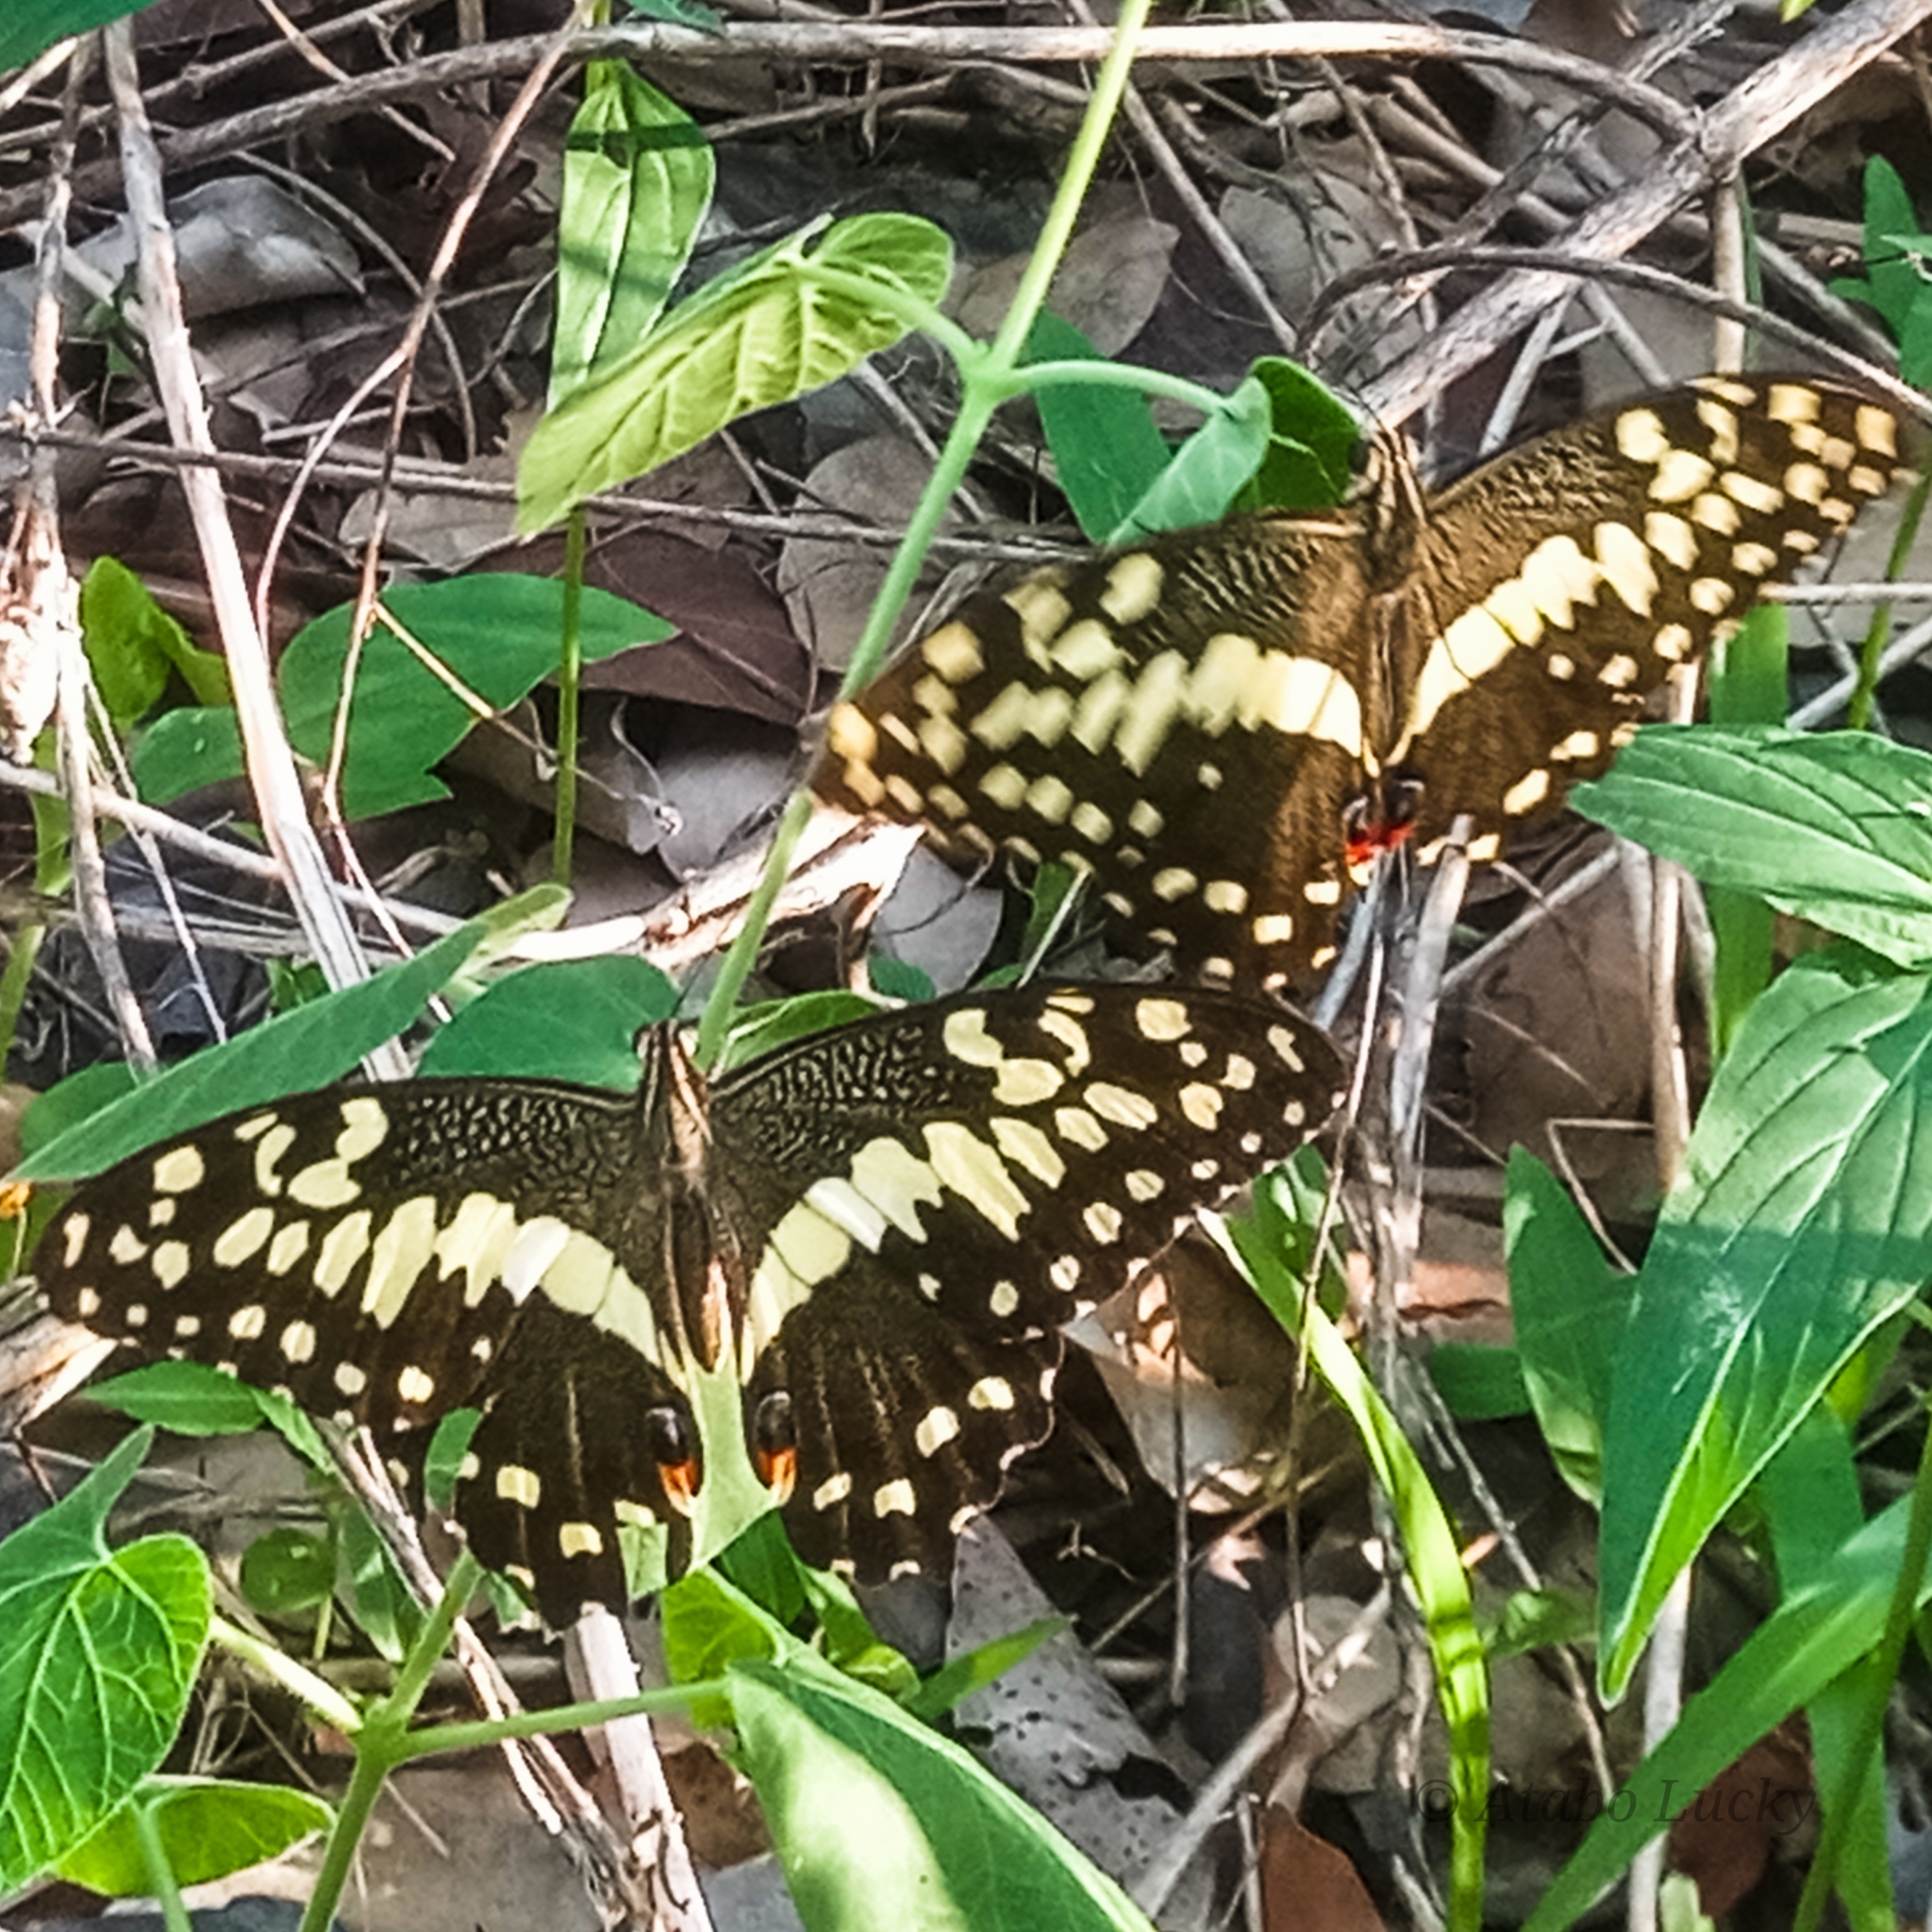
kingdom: Animalia
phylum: Arthropoda
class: Insecta
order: Lepidoptera
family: Papilionidae
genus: Papilio
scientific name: Papilio demodocus
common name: Christmas butterfly
